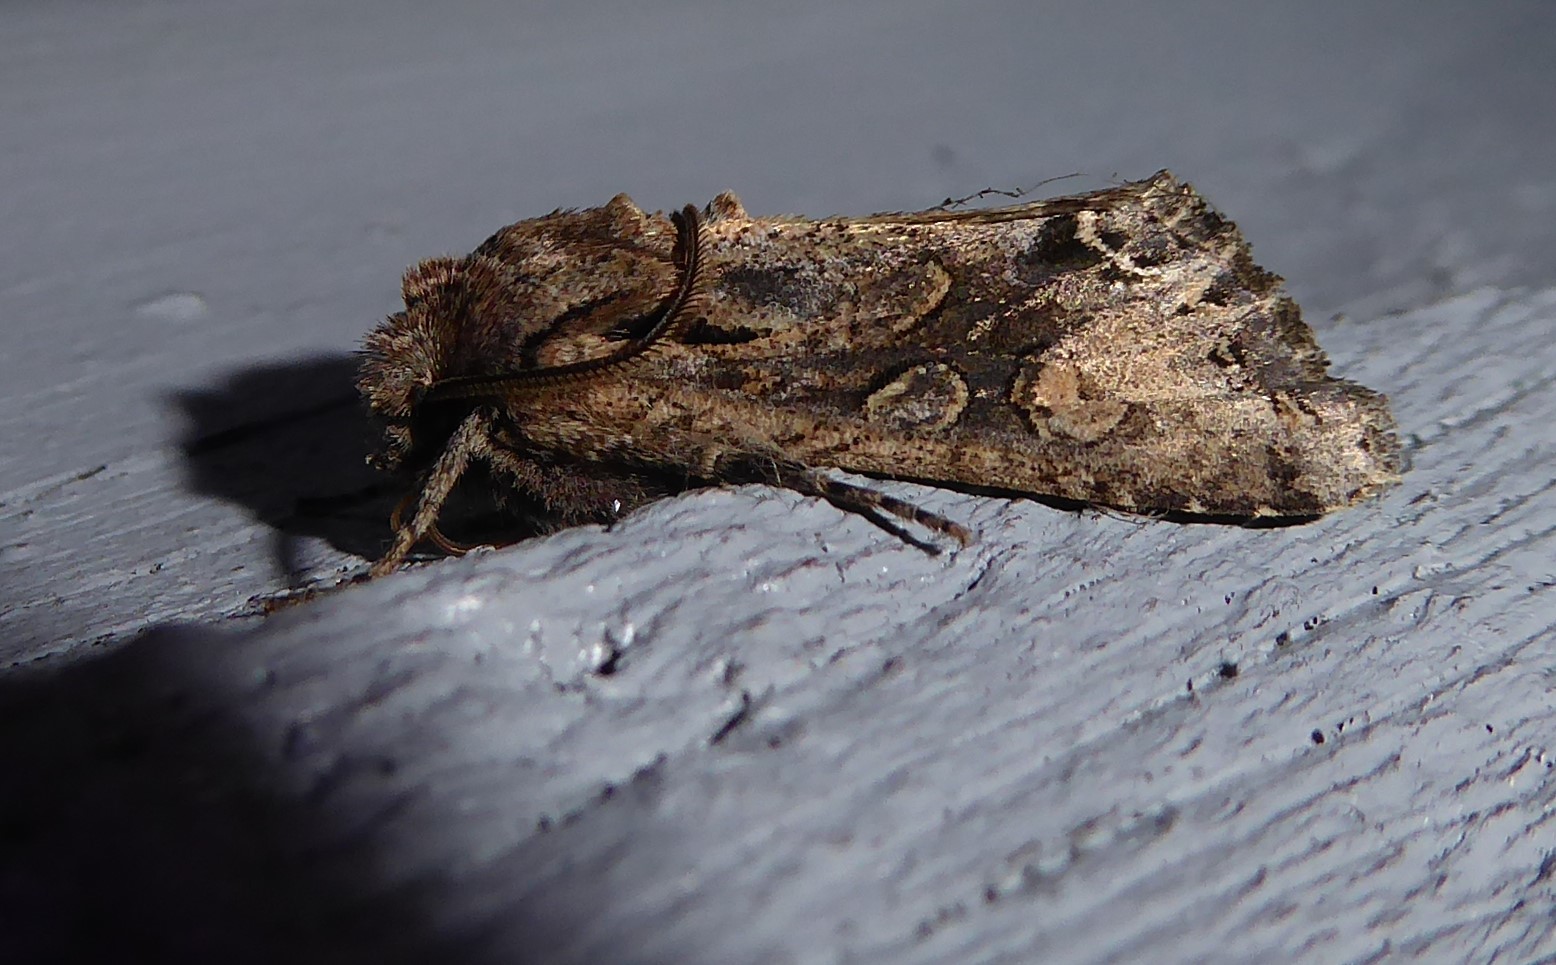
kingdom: Animalia
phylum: Arthropoda
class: Insecta
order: Lepidoptera
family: Noctuidae
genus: Ichneutica
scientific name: Ichneutica
